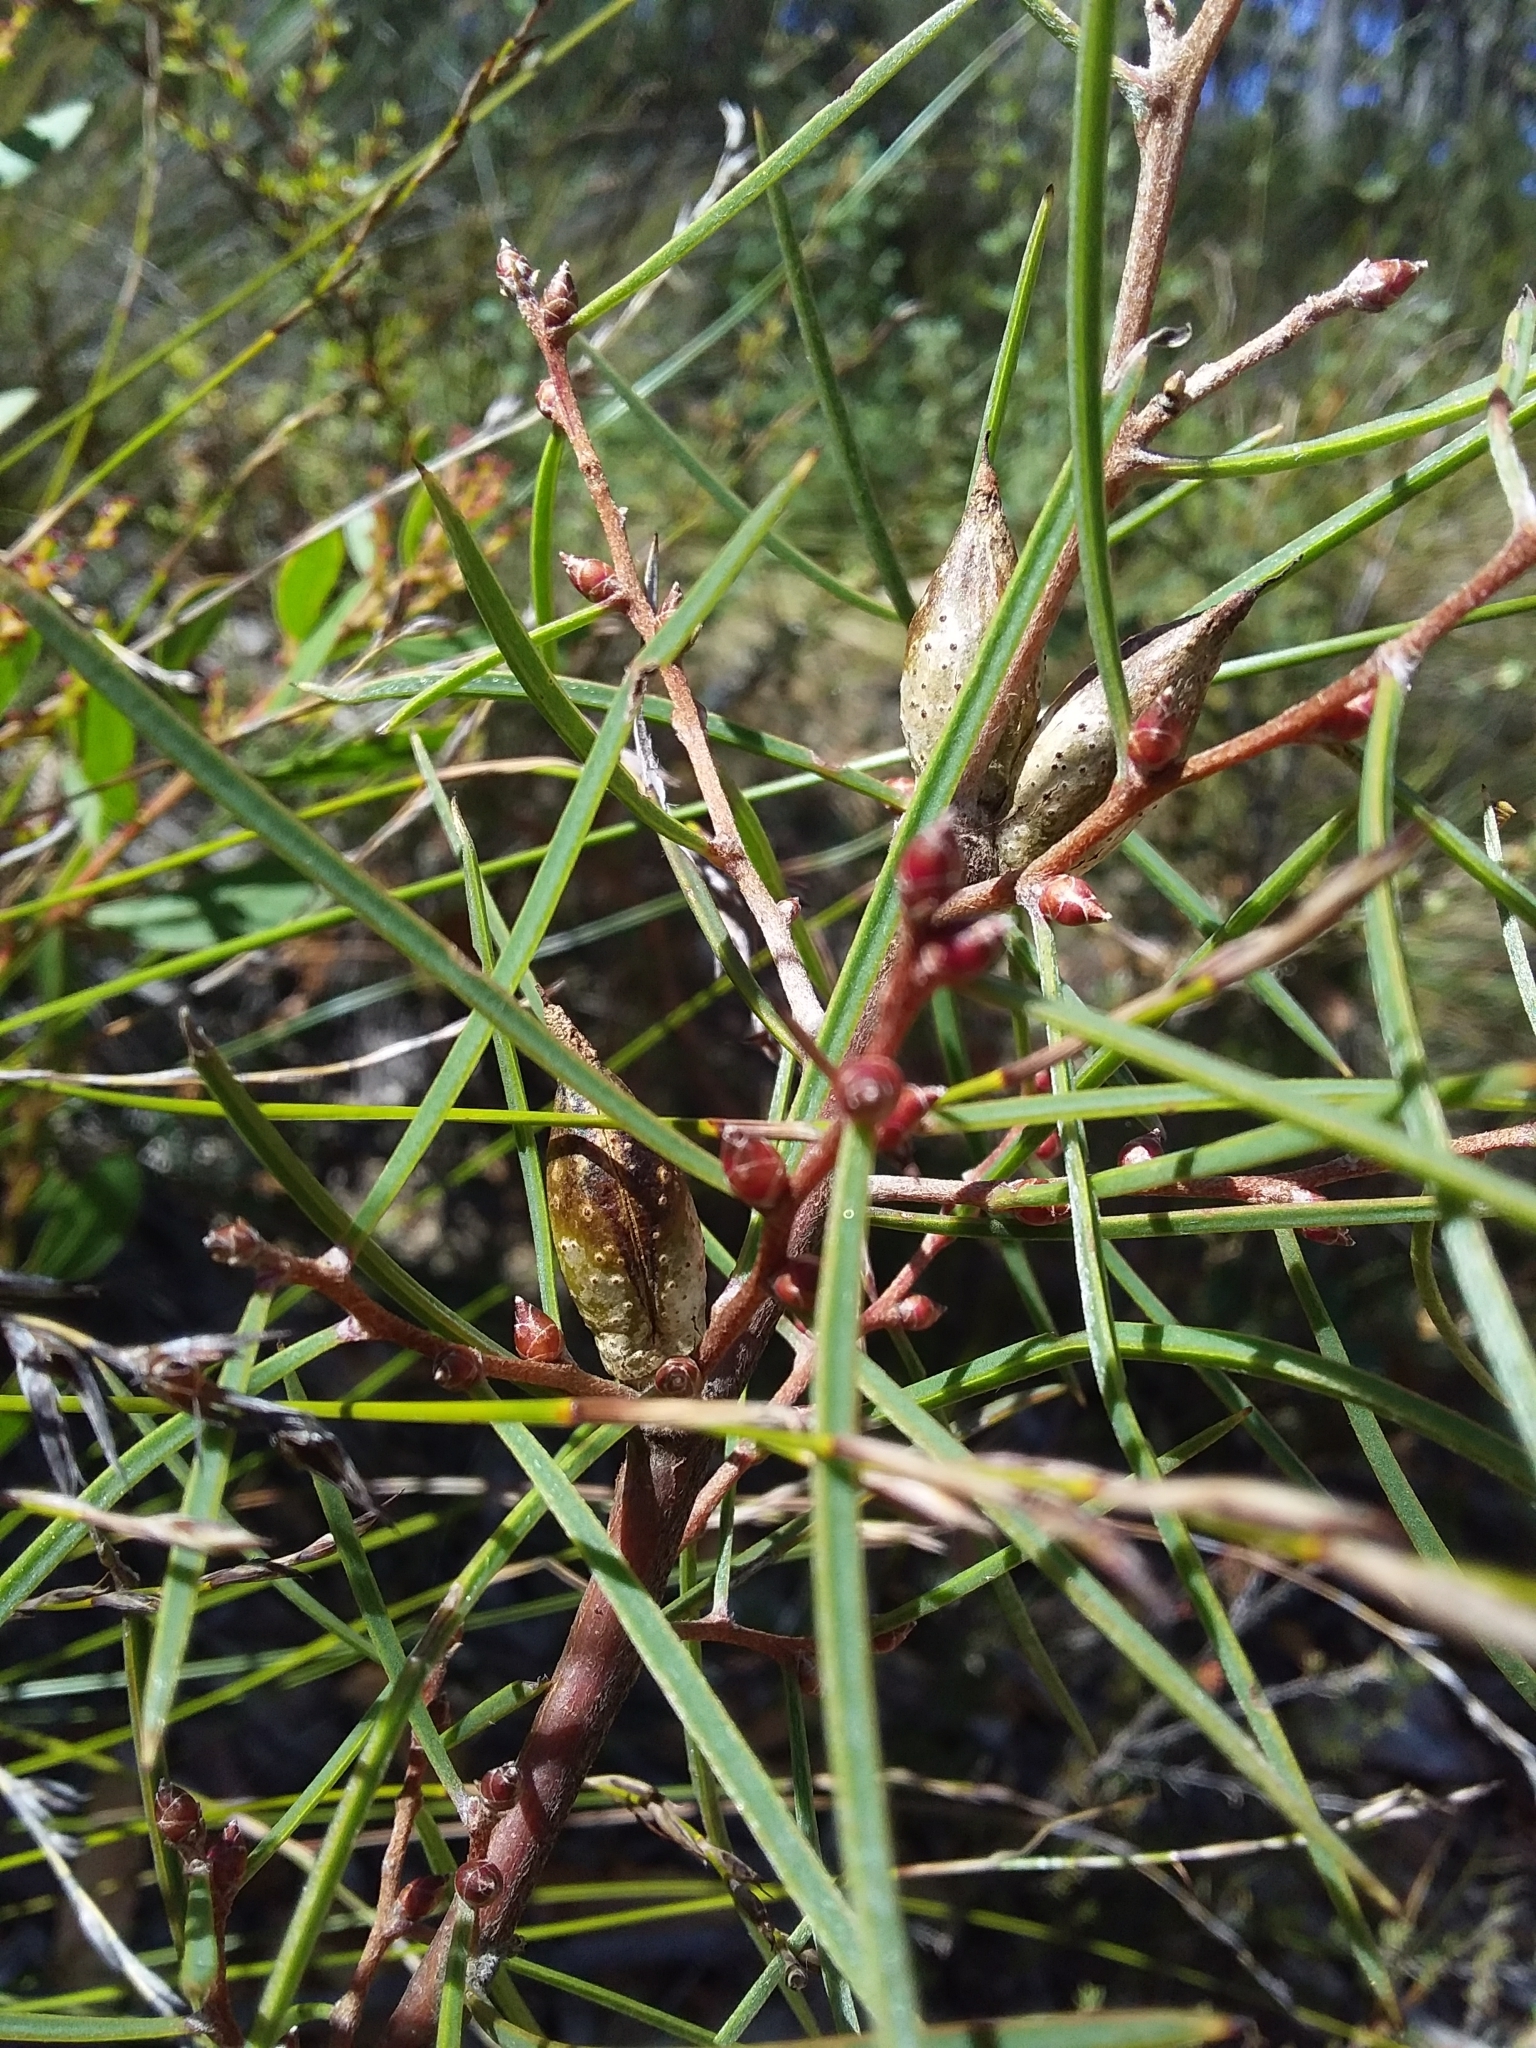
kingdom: Plantae
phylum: Tracheophyta
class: Magnoliopsida
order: Proteales
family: Proteaceae
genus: Hakea
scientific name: Hakea carinata
